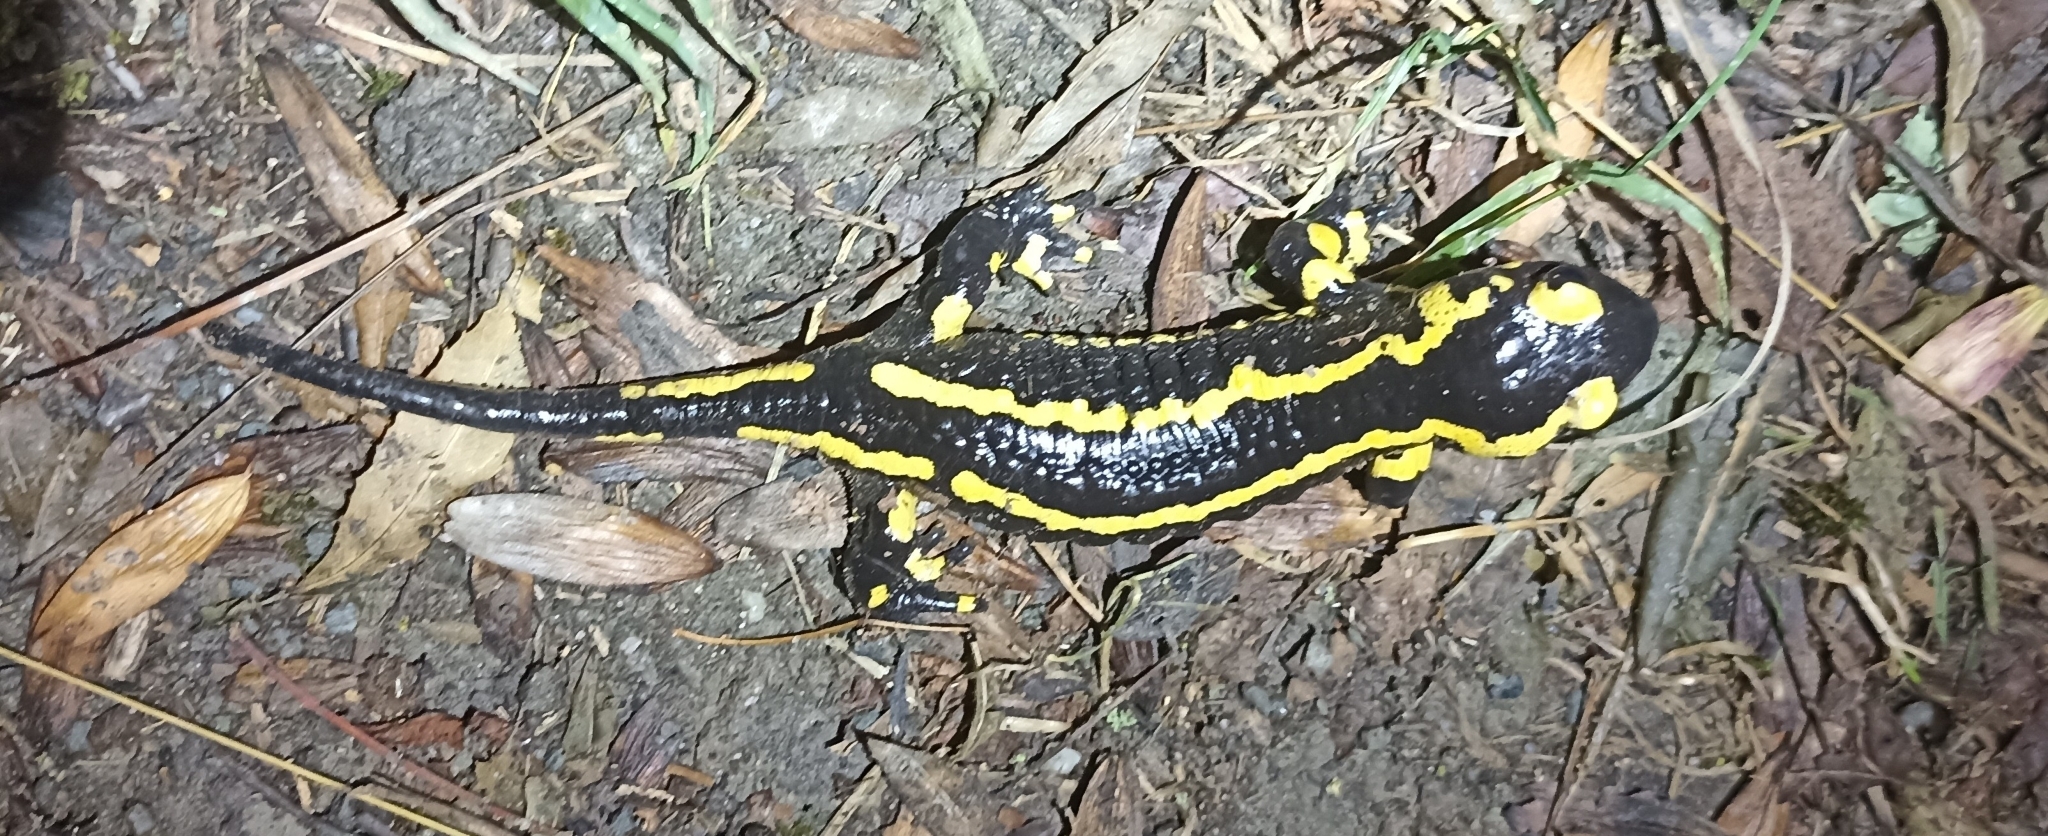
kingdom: Animalia
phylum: Chordata
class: Amphibia
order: Caudata
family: Salamandridae
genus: Salamandra
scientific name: Salamandra salamandra
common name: Fire salamander
